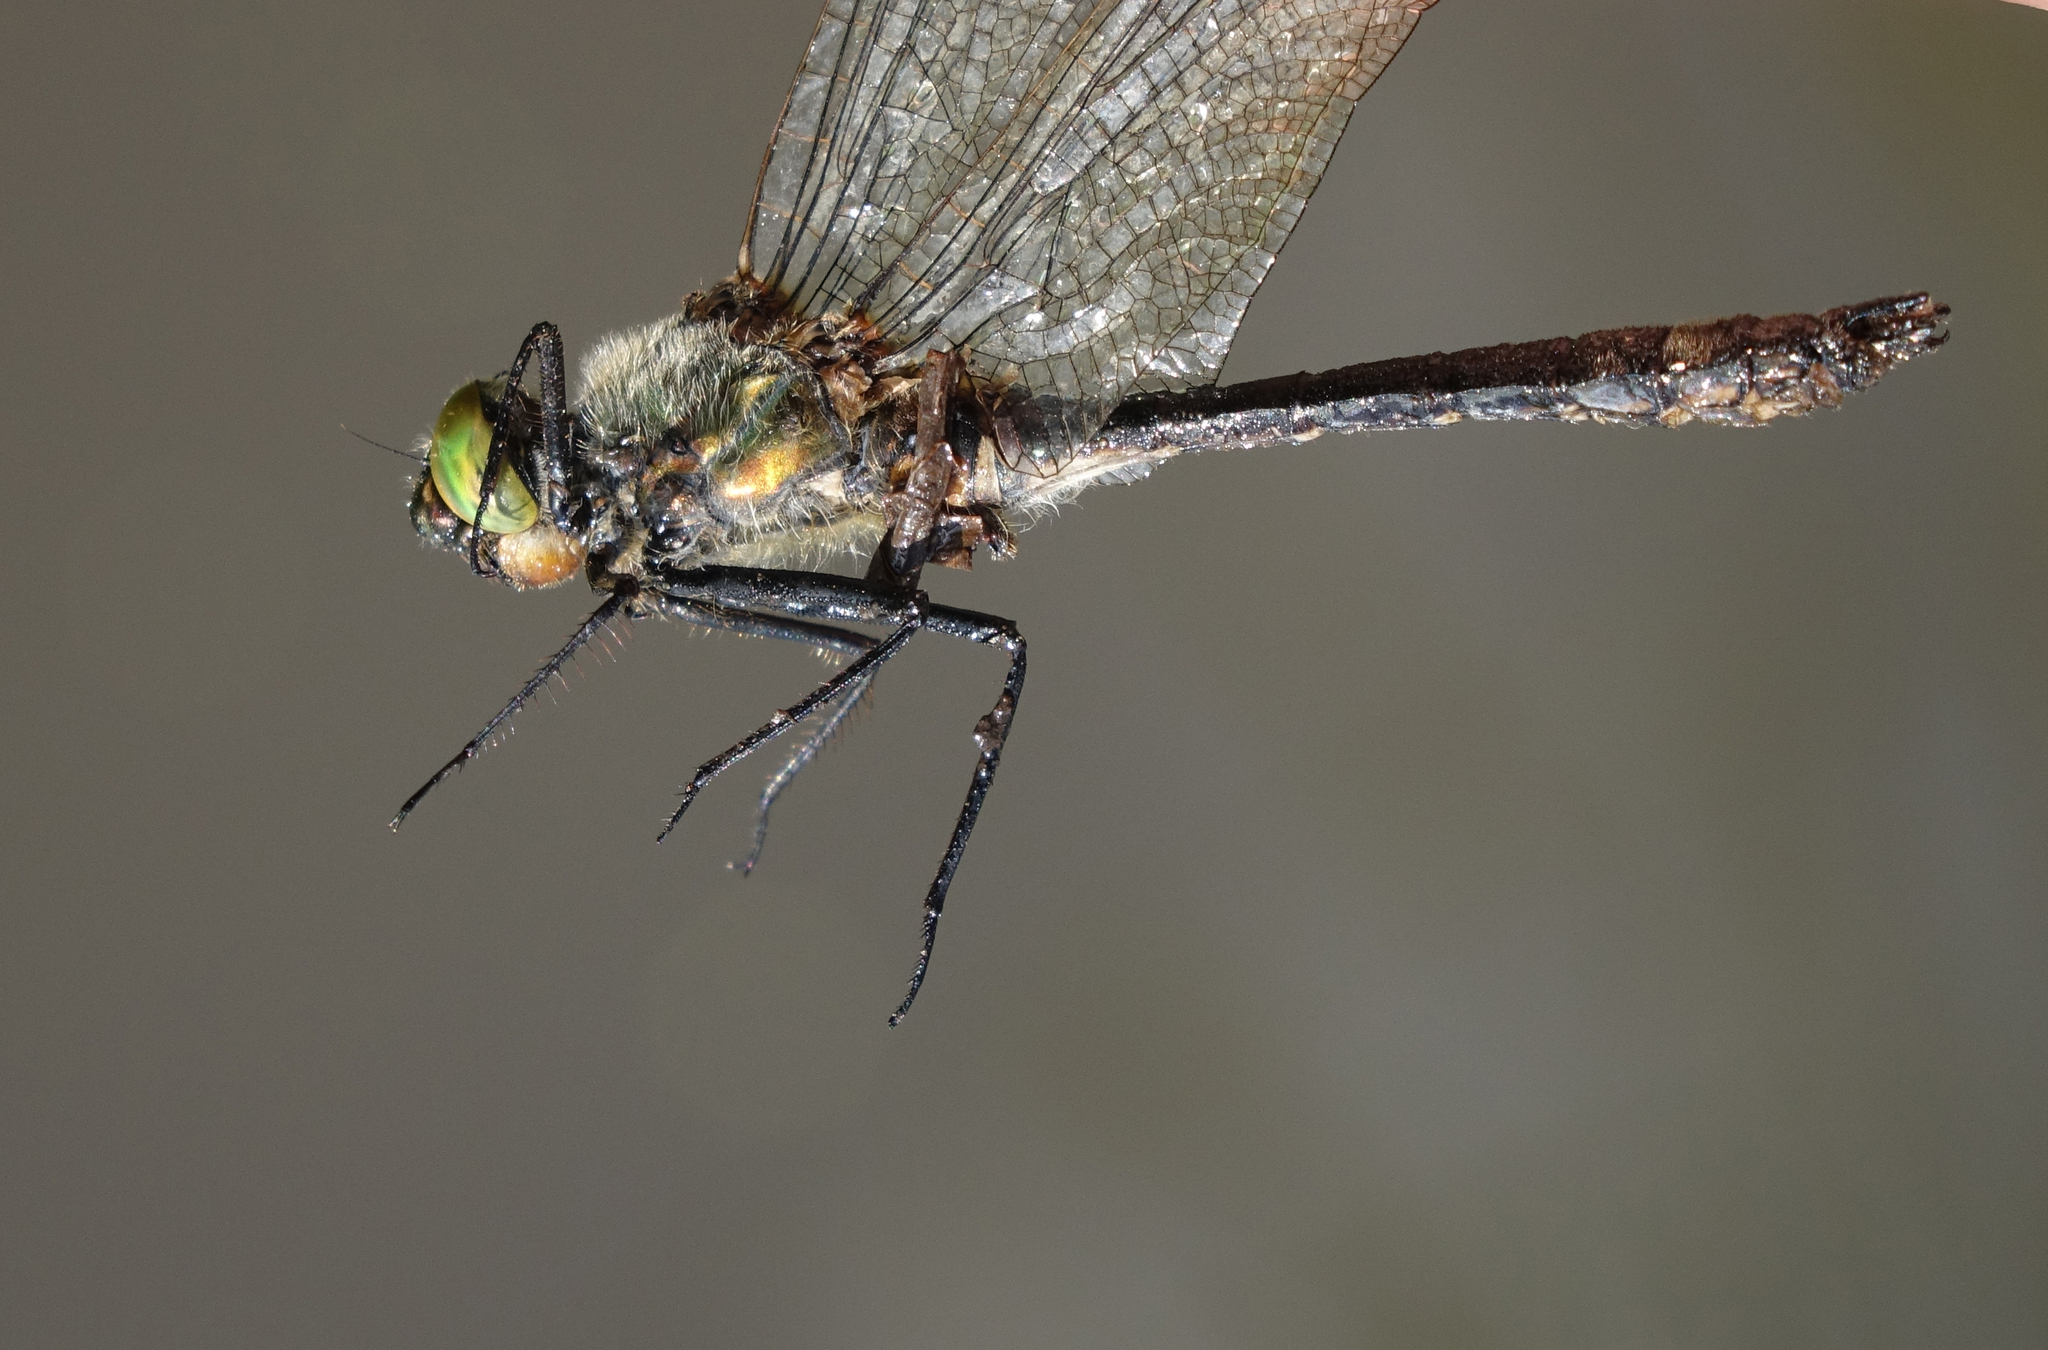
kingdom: Animalia
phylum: Arthropoda
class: Insecta
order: Odonata
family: Corduliidae
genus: Cordulia
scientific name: Cordulia aenea
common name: Downy emerald
